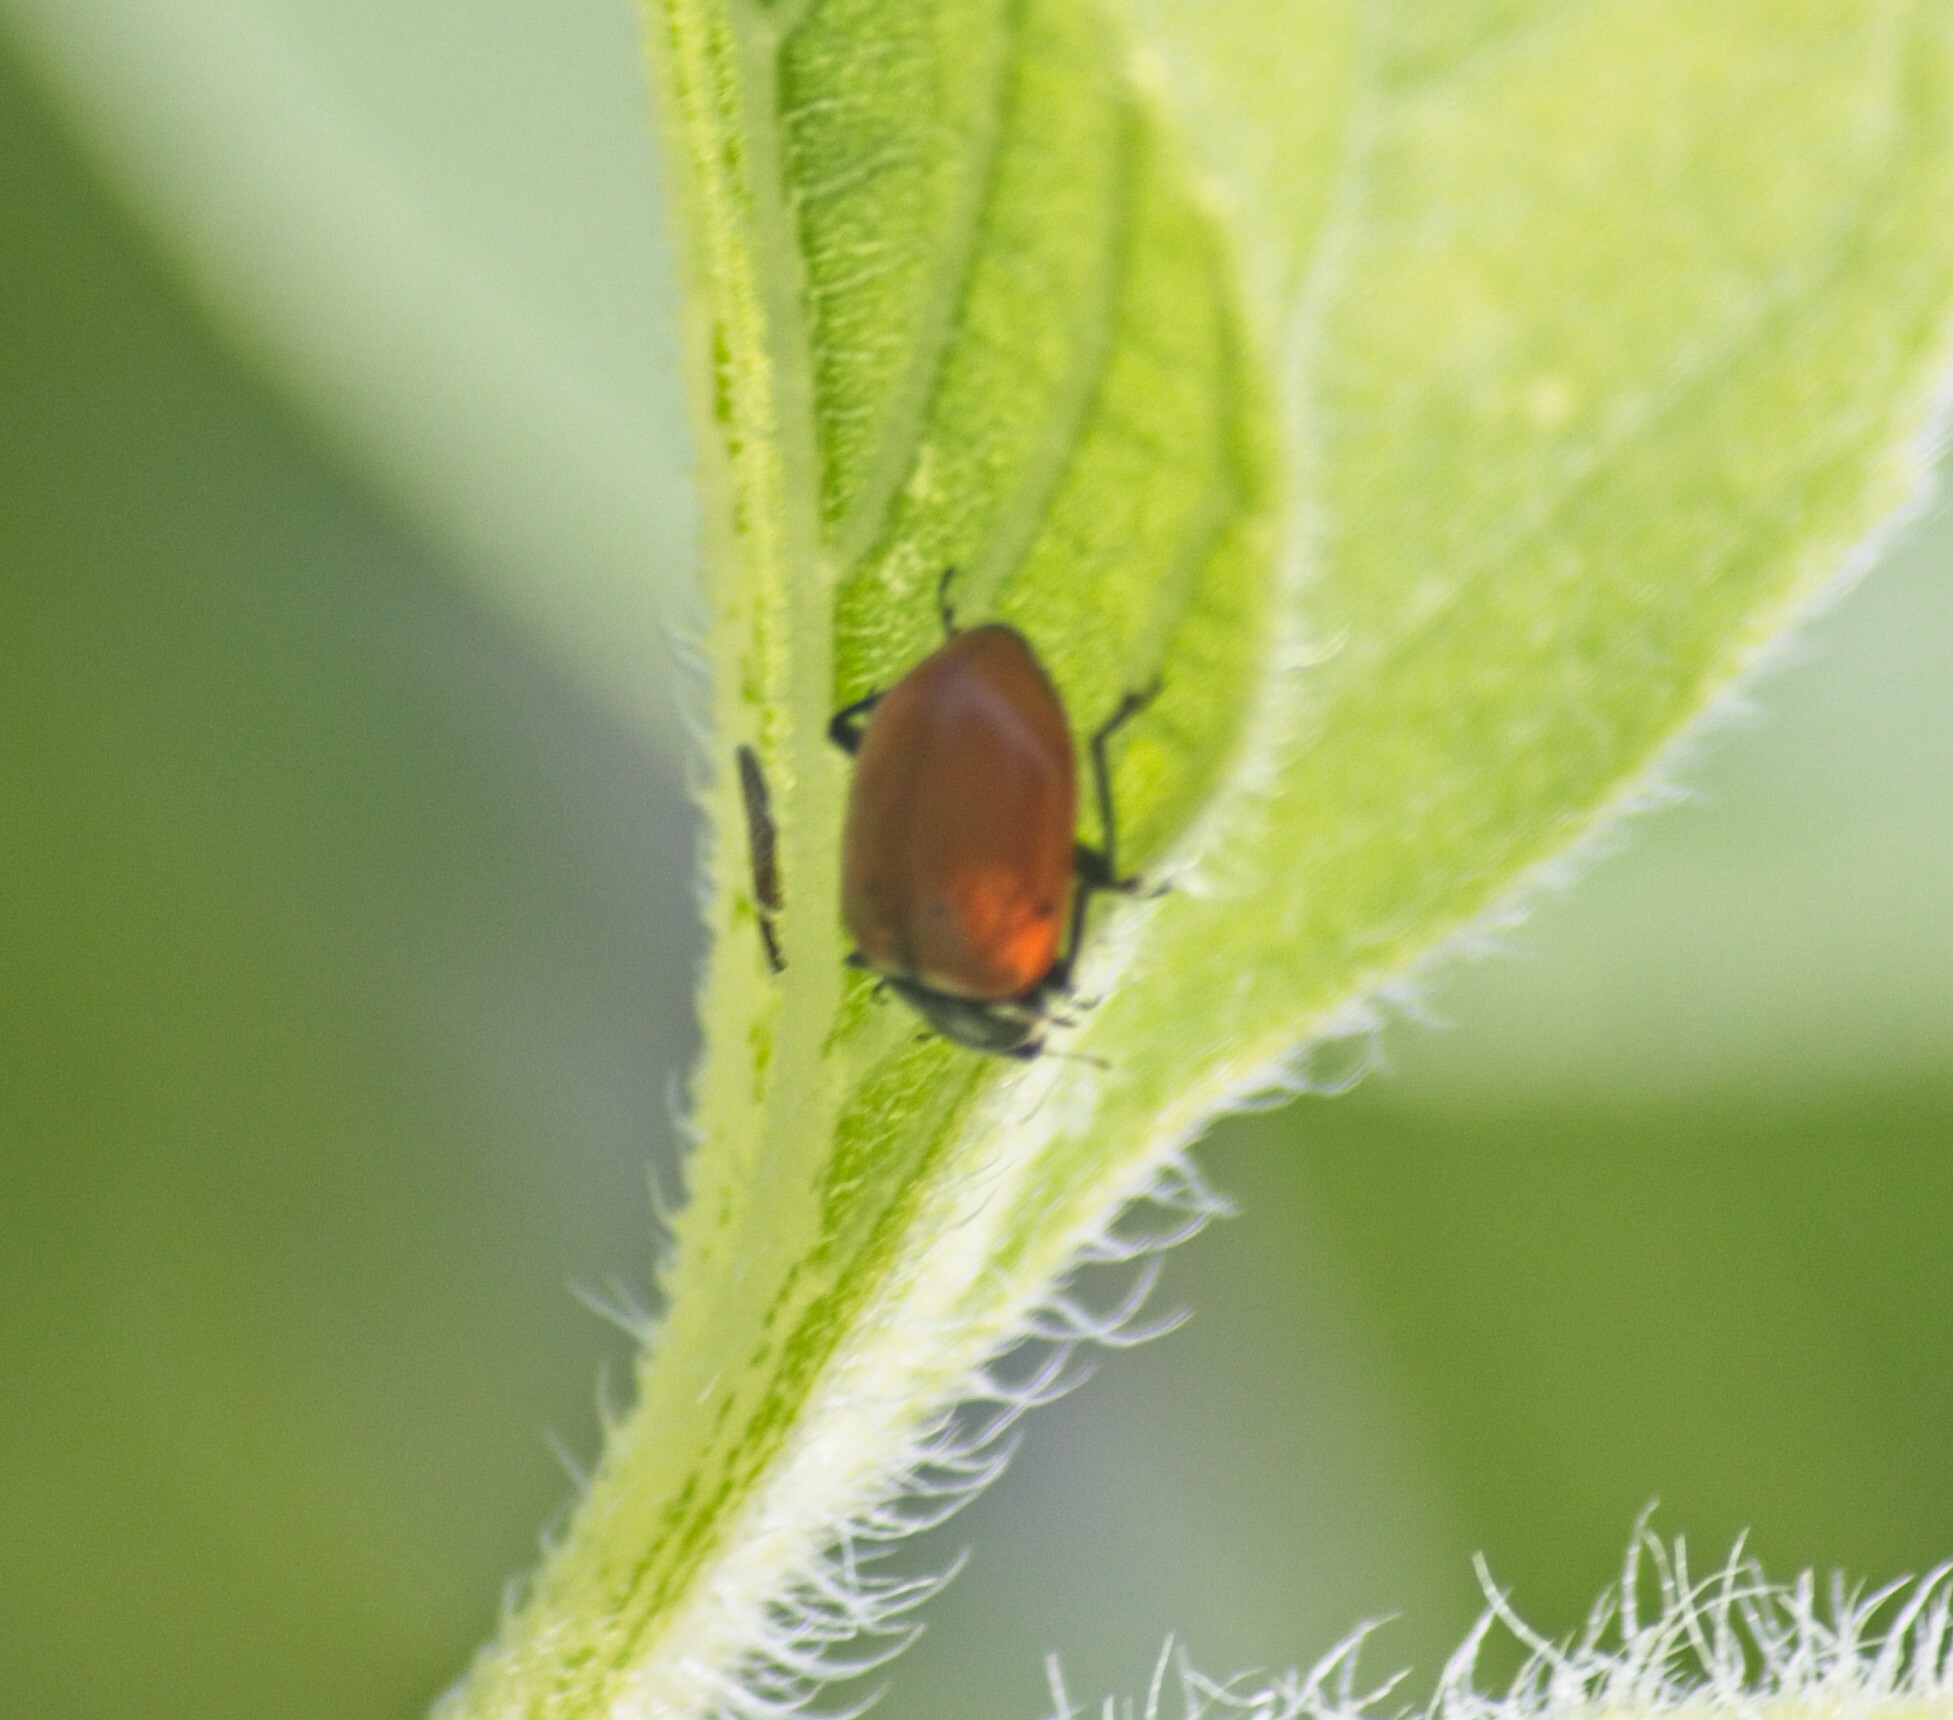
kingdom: Animalia
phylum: Arthropoda
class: Insecta
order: Coleoptera
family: Coccinellidae
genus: Hippodamia
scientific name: Hippodamia convergens
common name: Convergent lady beetle
